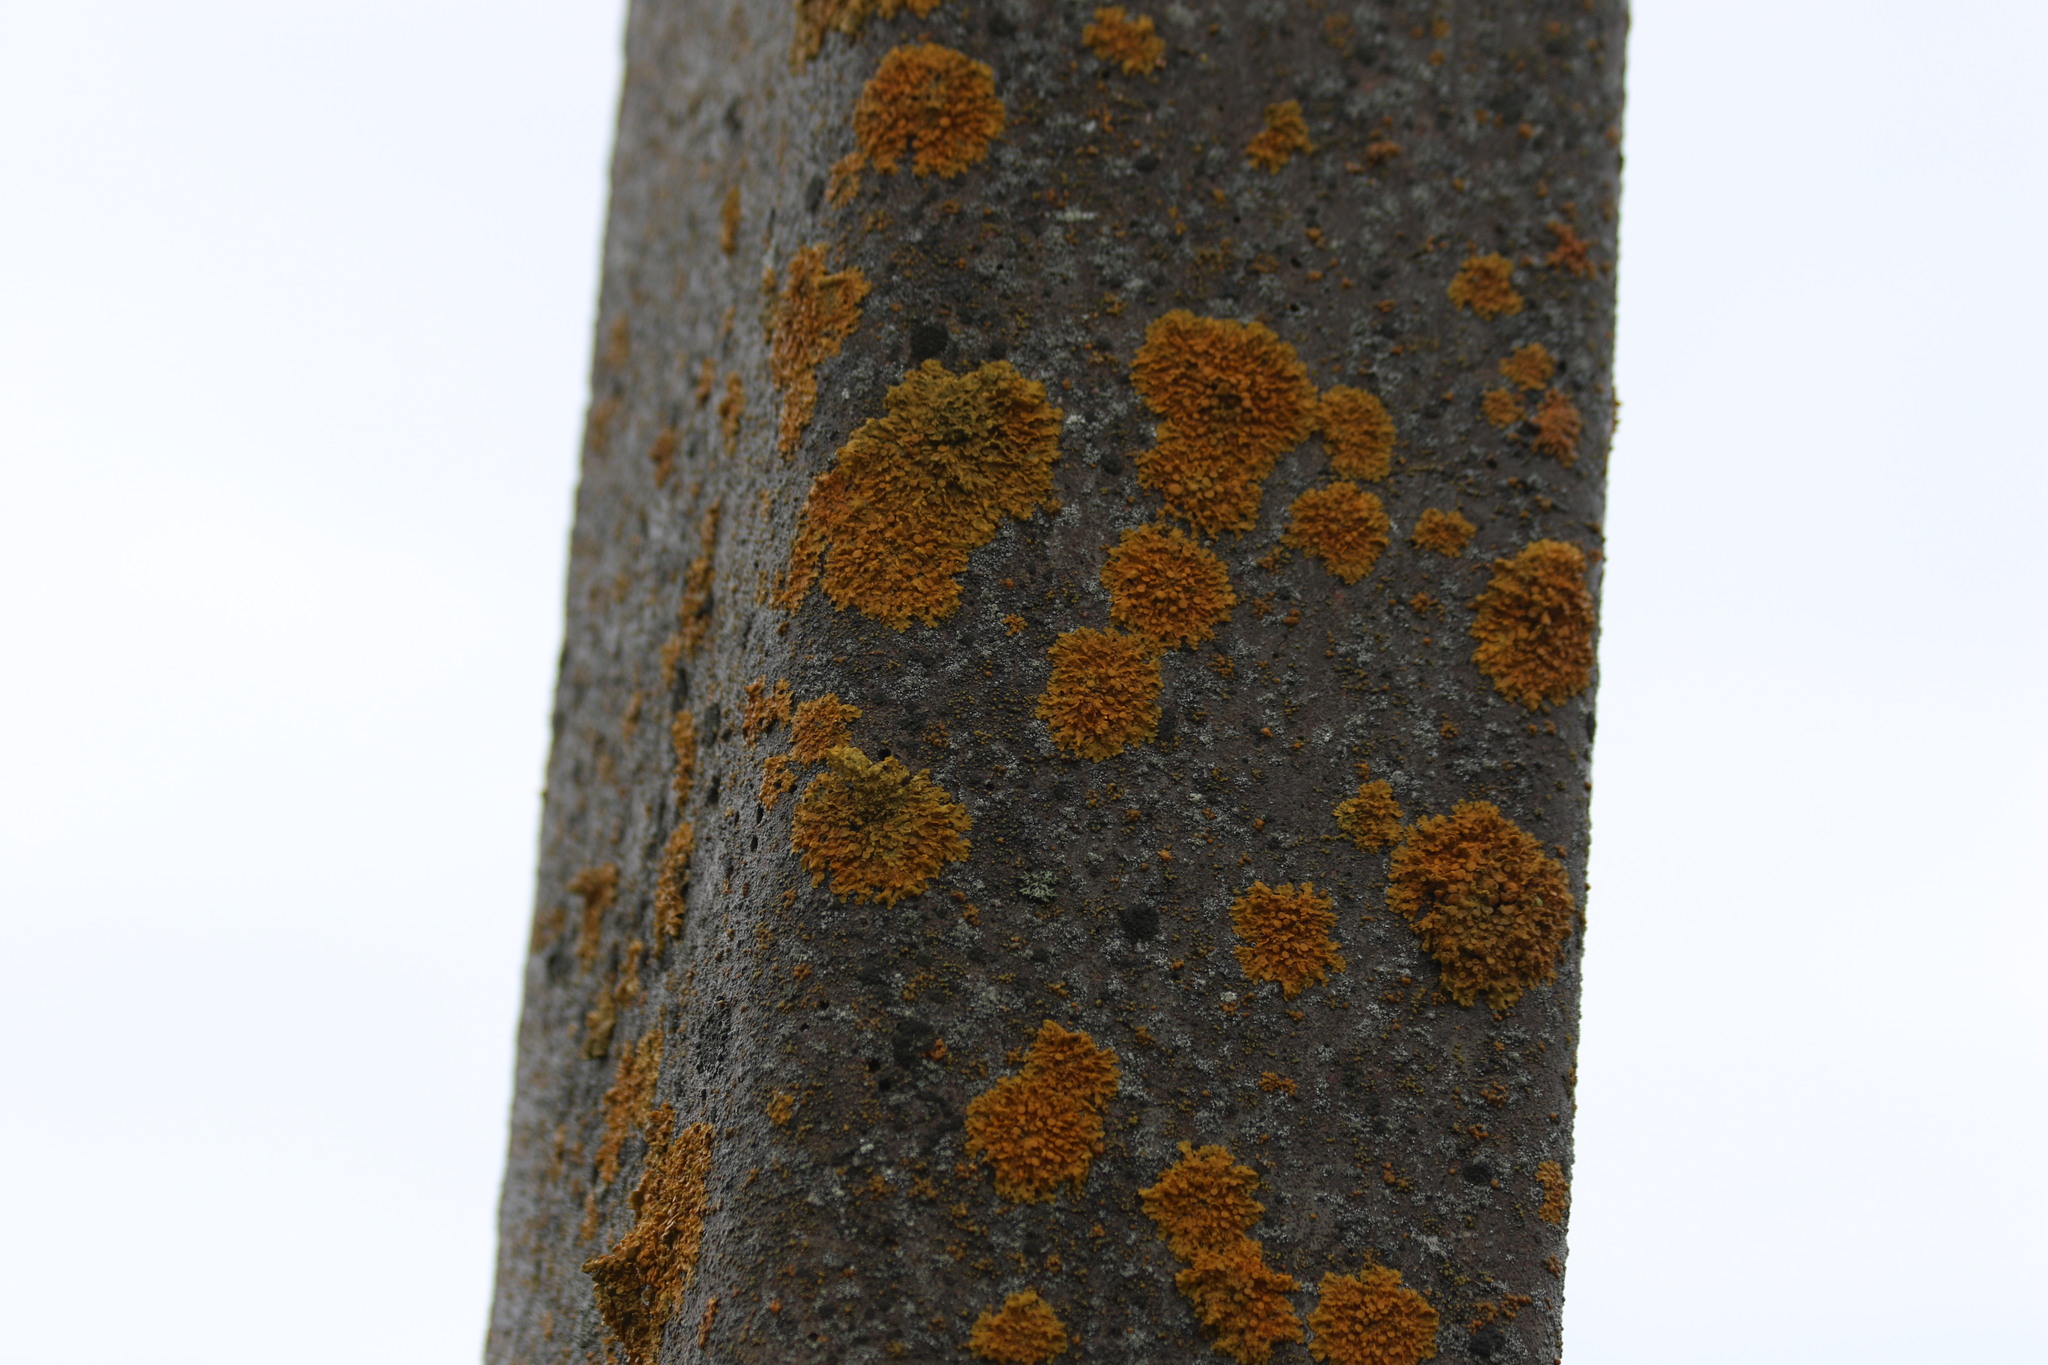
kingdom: Fungi
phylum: Ascomycota
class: Lecanoromycetes
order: Teloschistales
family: Teloschistaceae
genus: Xanthoria
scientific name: Xanthoria parietina
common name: Common orange lichen
